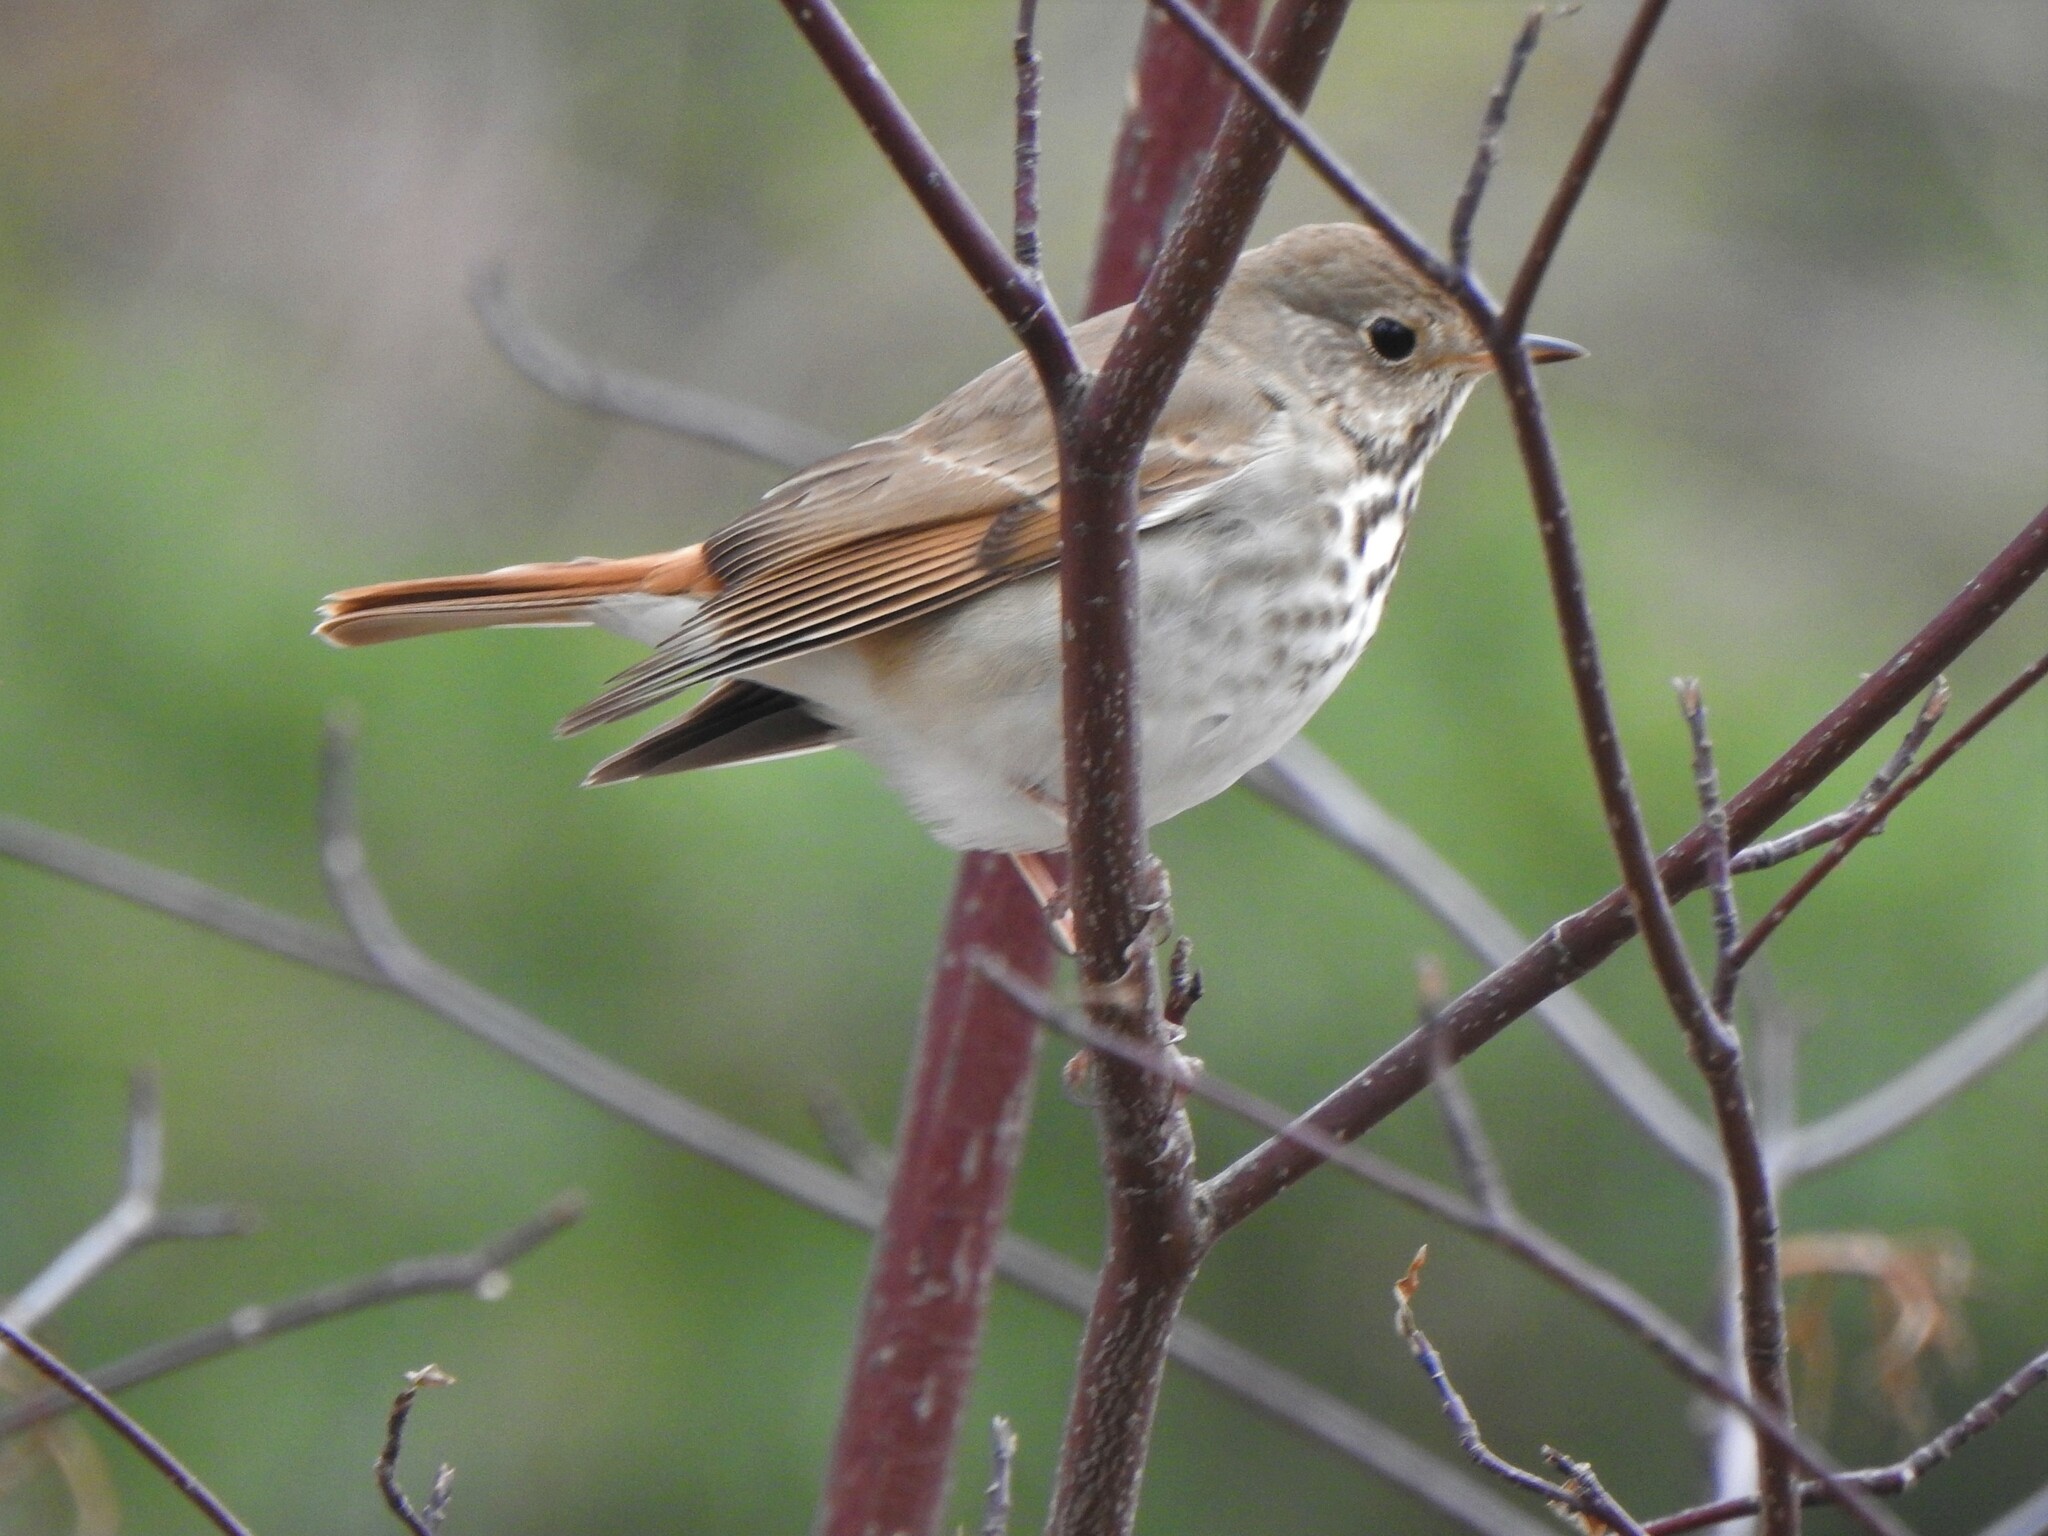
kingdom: Animalia
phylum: Chordata
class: Aves
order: Passeriformes
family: Turdidae
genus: Catharus
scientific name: Catharus guttatus
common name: Hermit thrush
